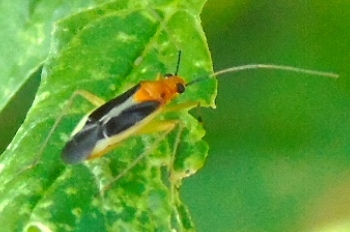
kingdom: Animalia
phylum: Arthropoda
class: Insecta
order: Hemiptera
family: Miridae
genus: Ganocapsus
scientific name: Ganocapsus filiformis
